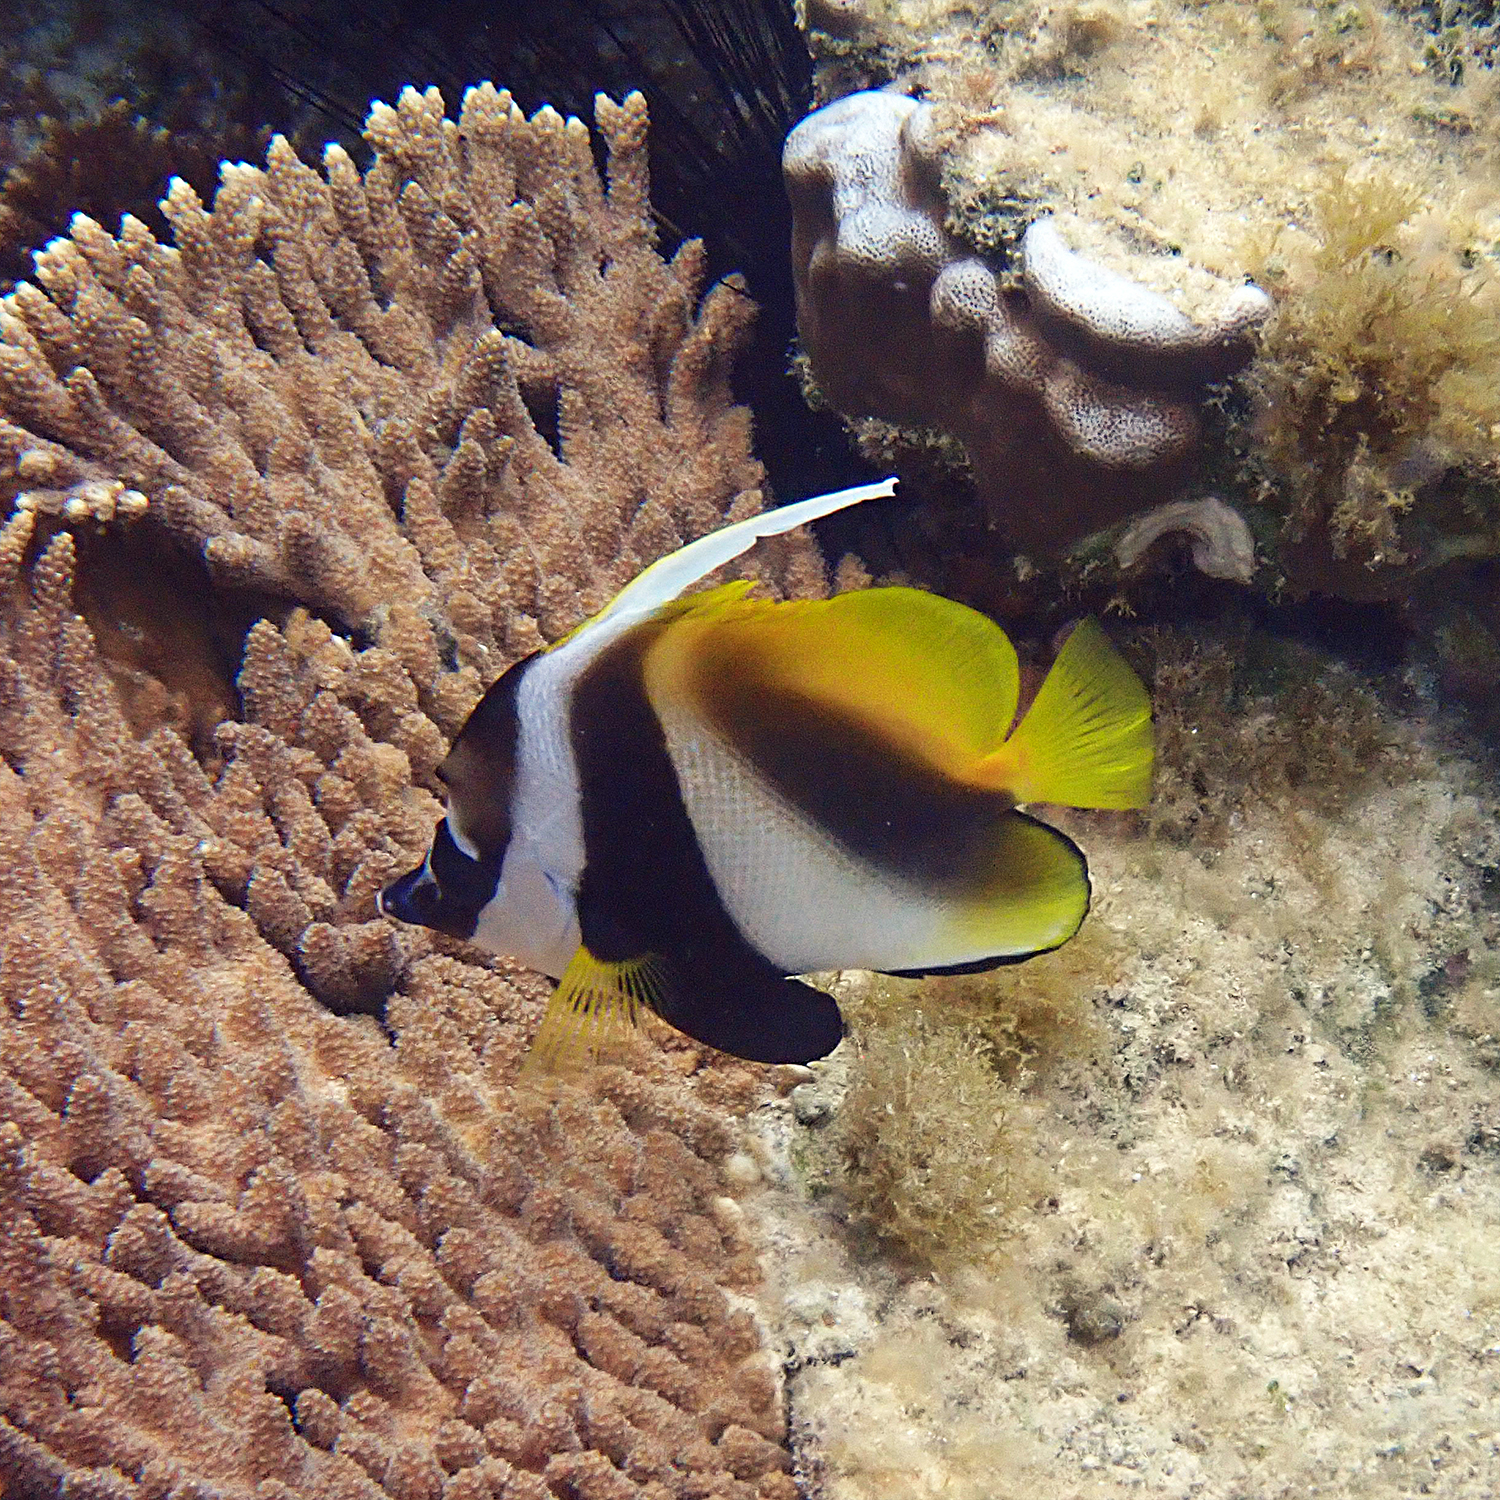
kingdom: Animalia
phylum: Chordata
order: Perciformes
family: Chaetodontidae
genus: Heniochus
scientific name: Heniochus monoceros
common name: Masked bannerfish
